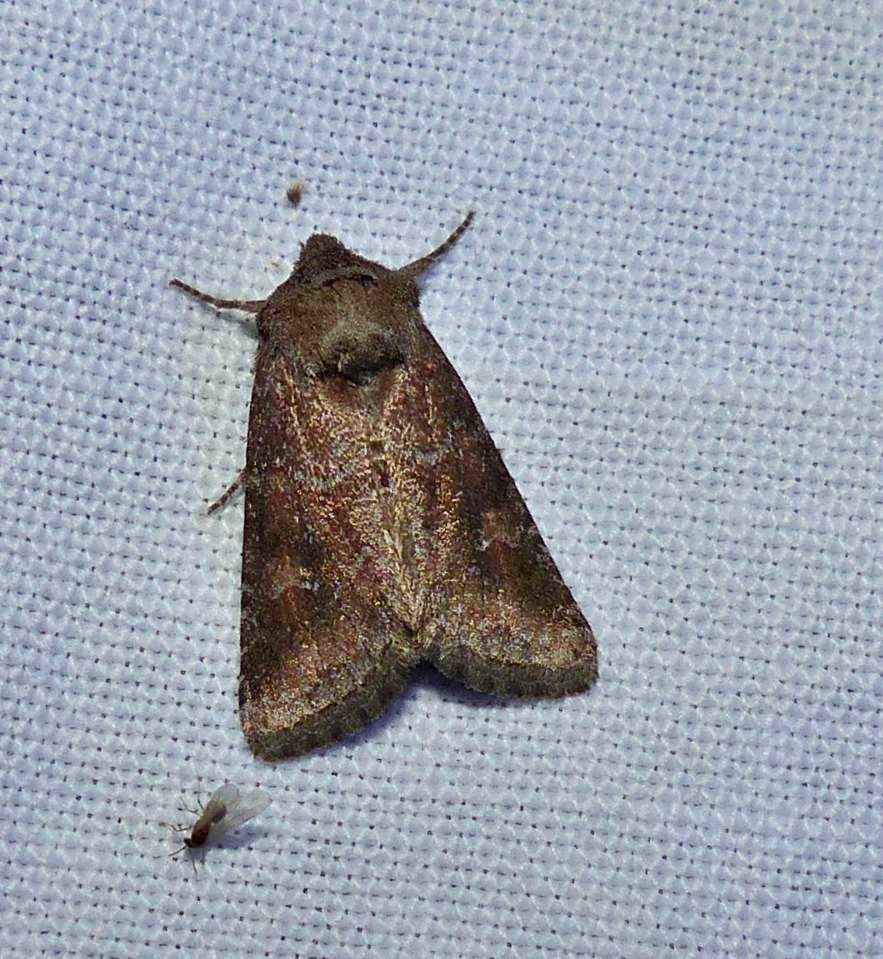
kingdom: Animalia
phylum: Arthropoda
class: Insecta
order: Lepidoptera
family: Noctuidae
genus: Lacinipolia
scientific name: Lacinipolia meditata
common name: Thinker moth
